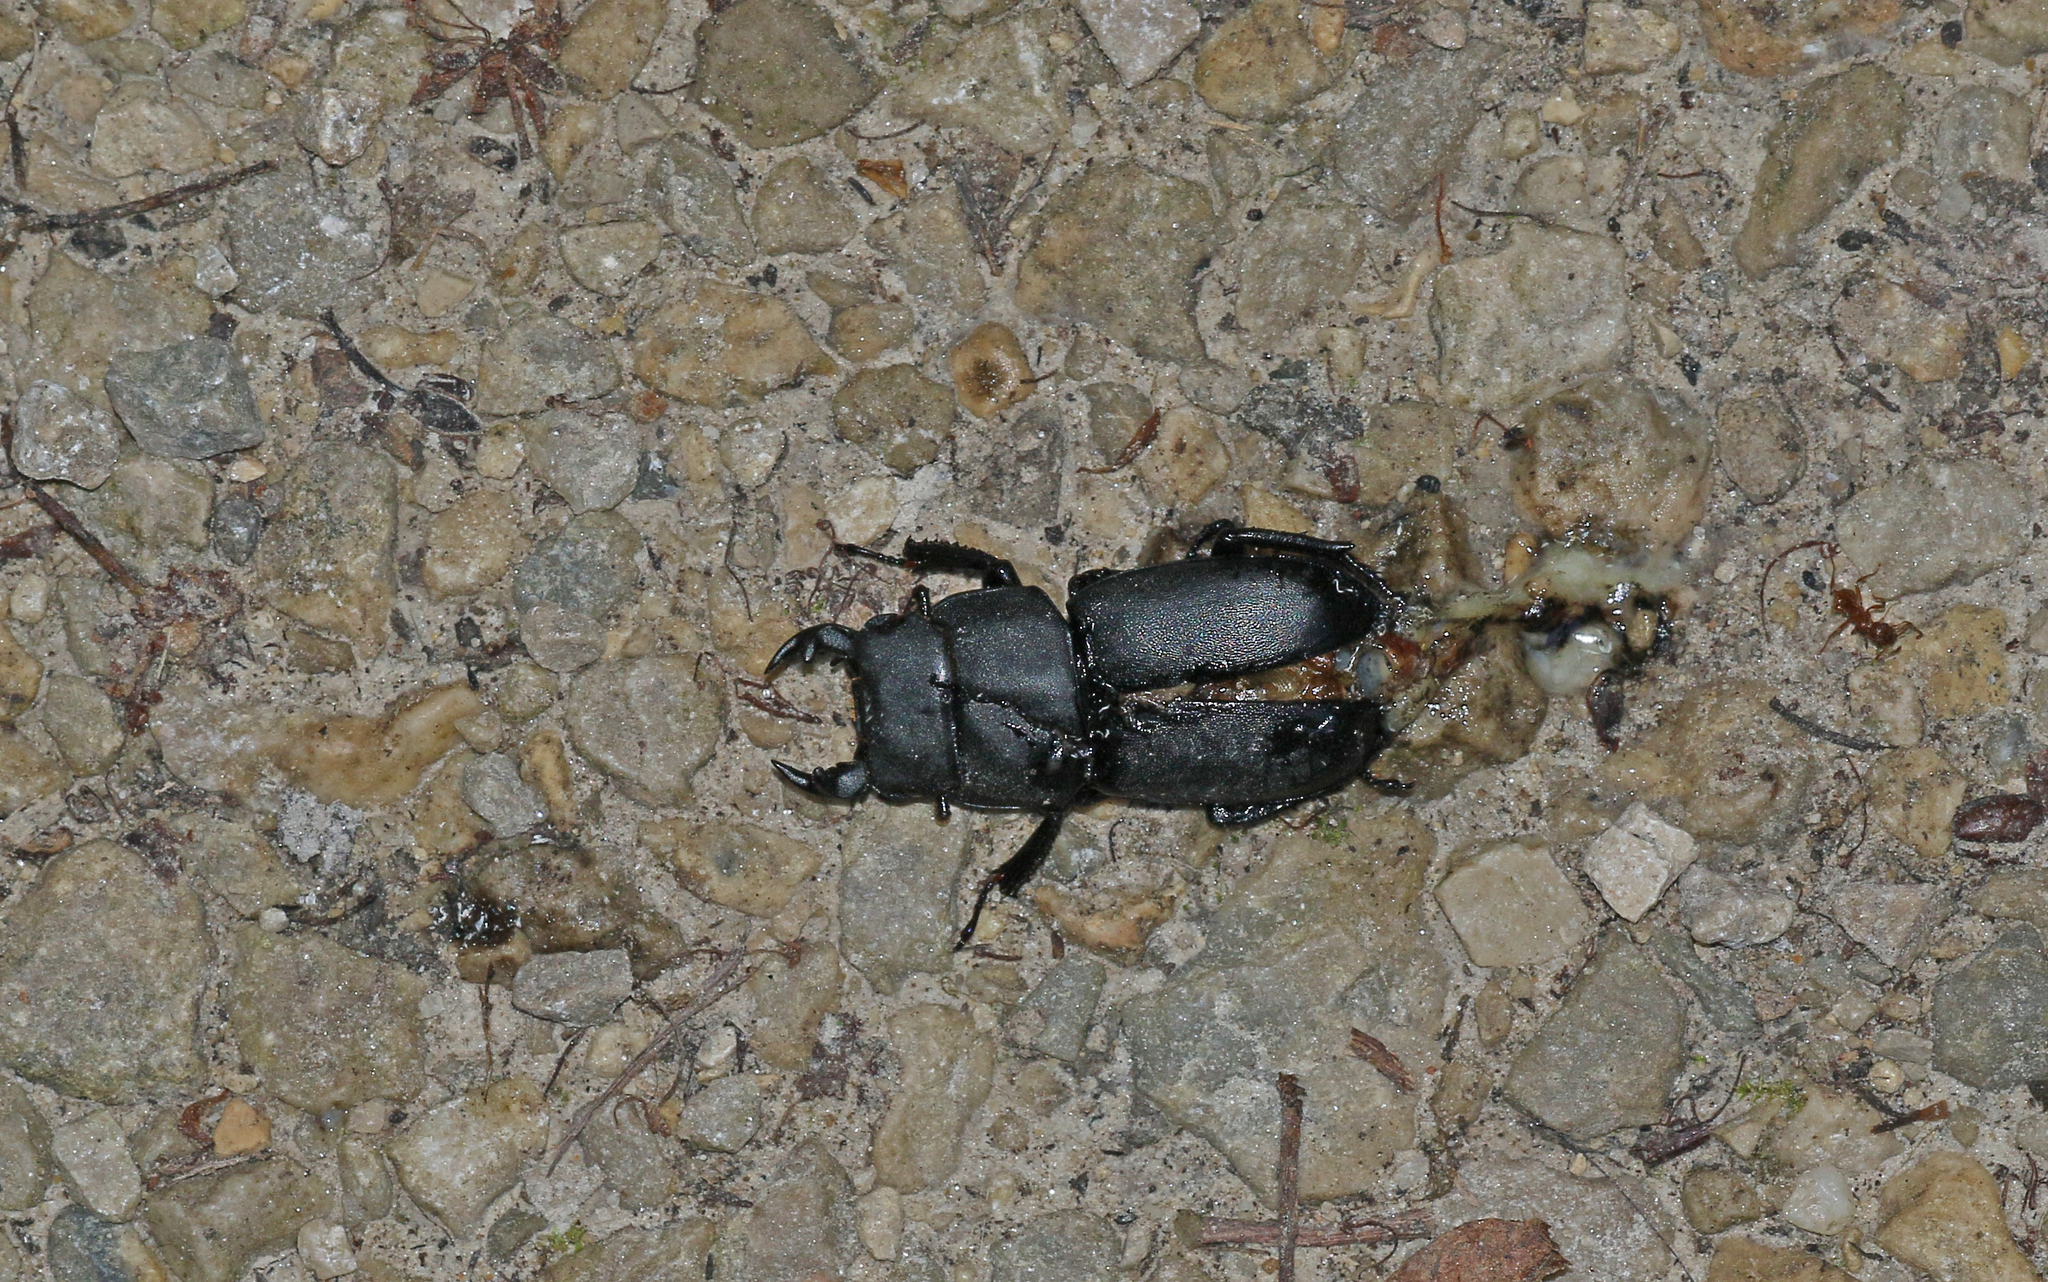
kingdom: Animalia
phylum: Arthropoda
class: Insecta
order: Coleoptera
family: Lucanidae
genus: Dorcus
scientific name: Dorcus parallelipipedus
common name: Lesser stag beetle
